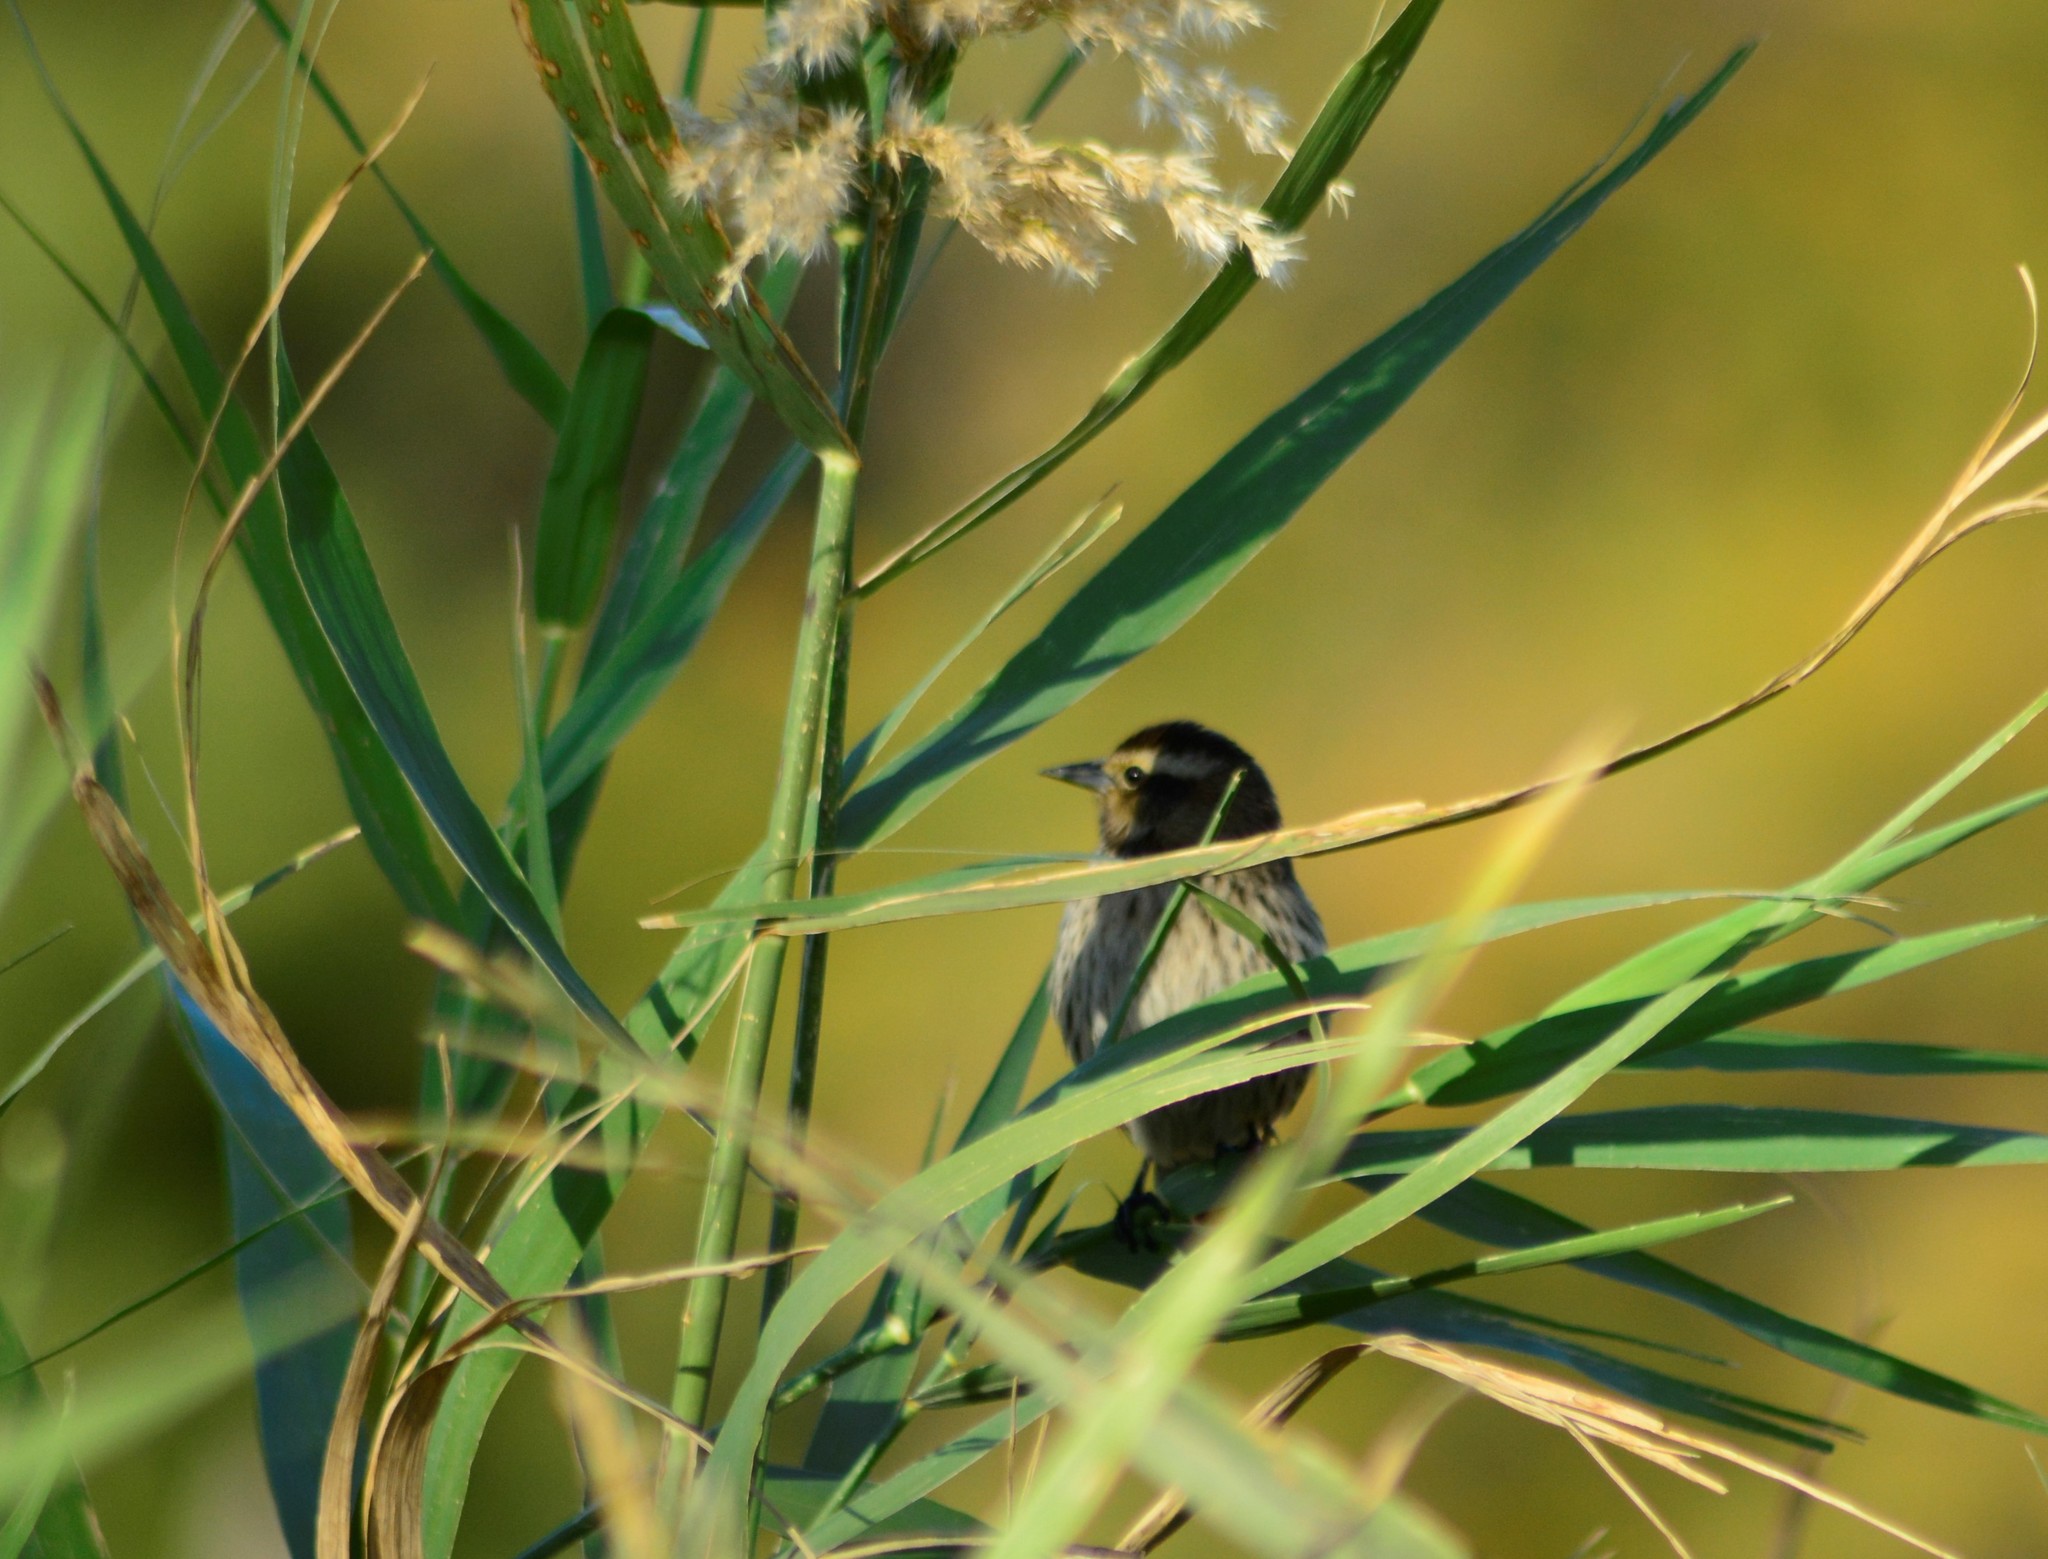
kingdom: Animalia
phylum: Chordata
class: Aves
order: Passeriformes
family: Icteridae
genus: Agelasticus
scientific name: Agelasticus thilius
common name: Yellow-winged blackbird
